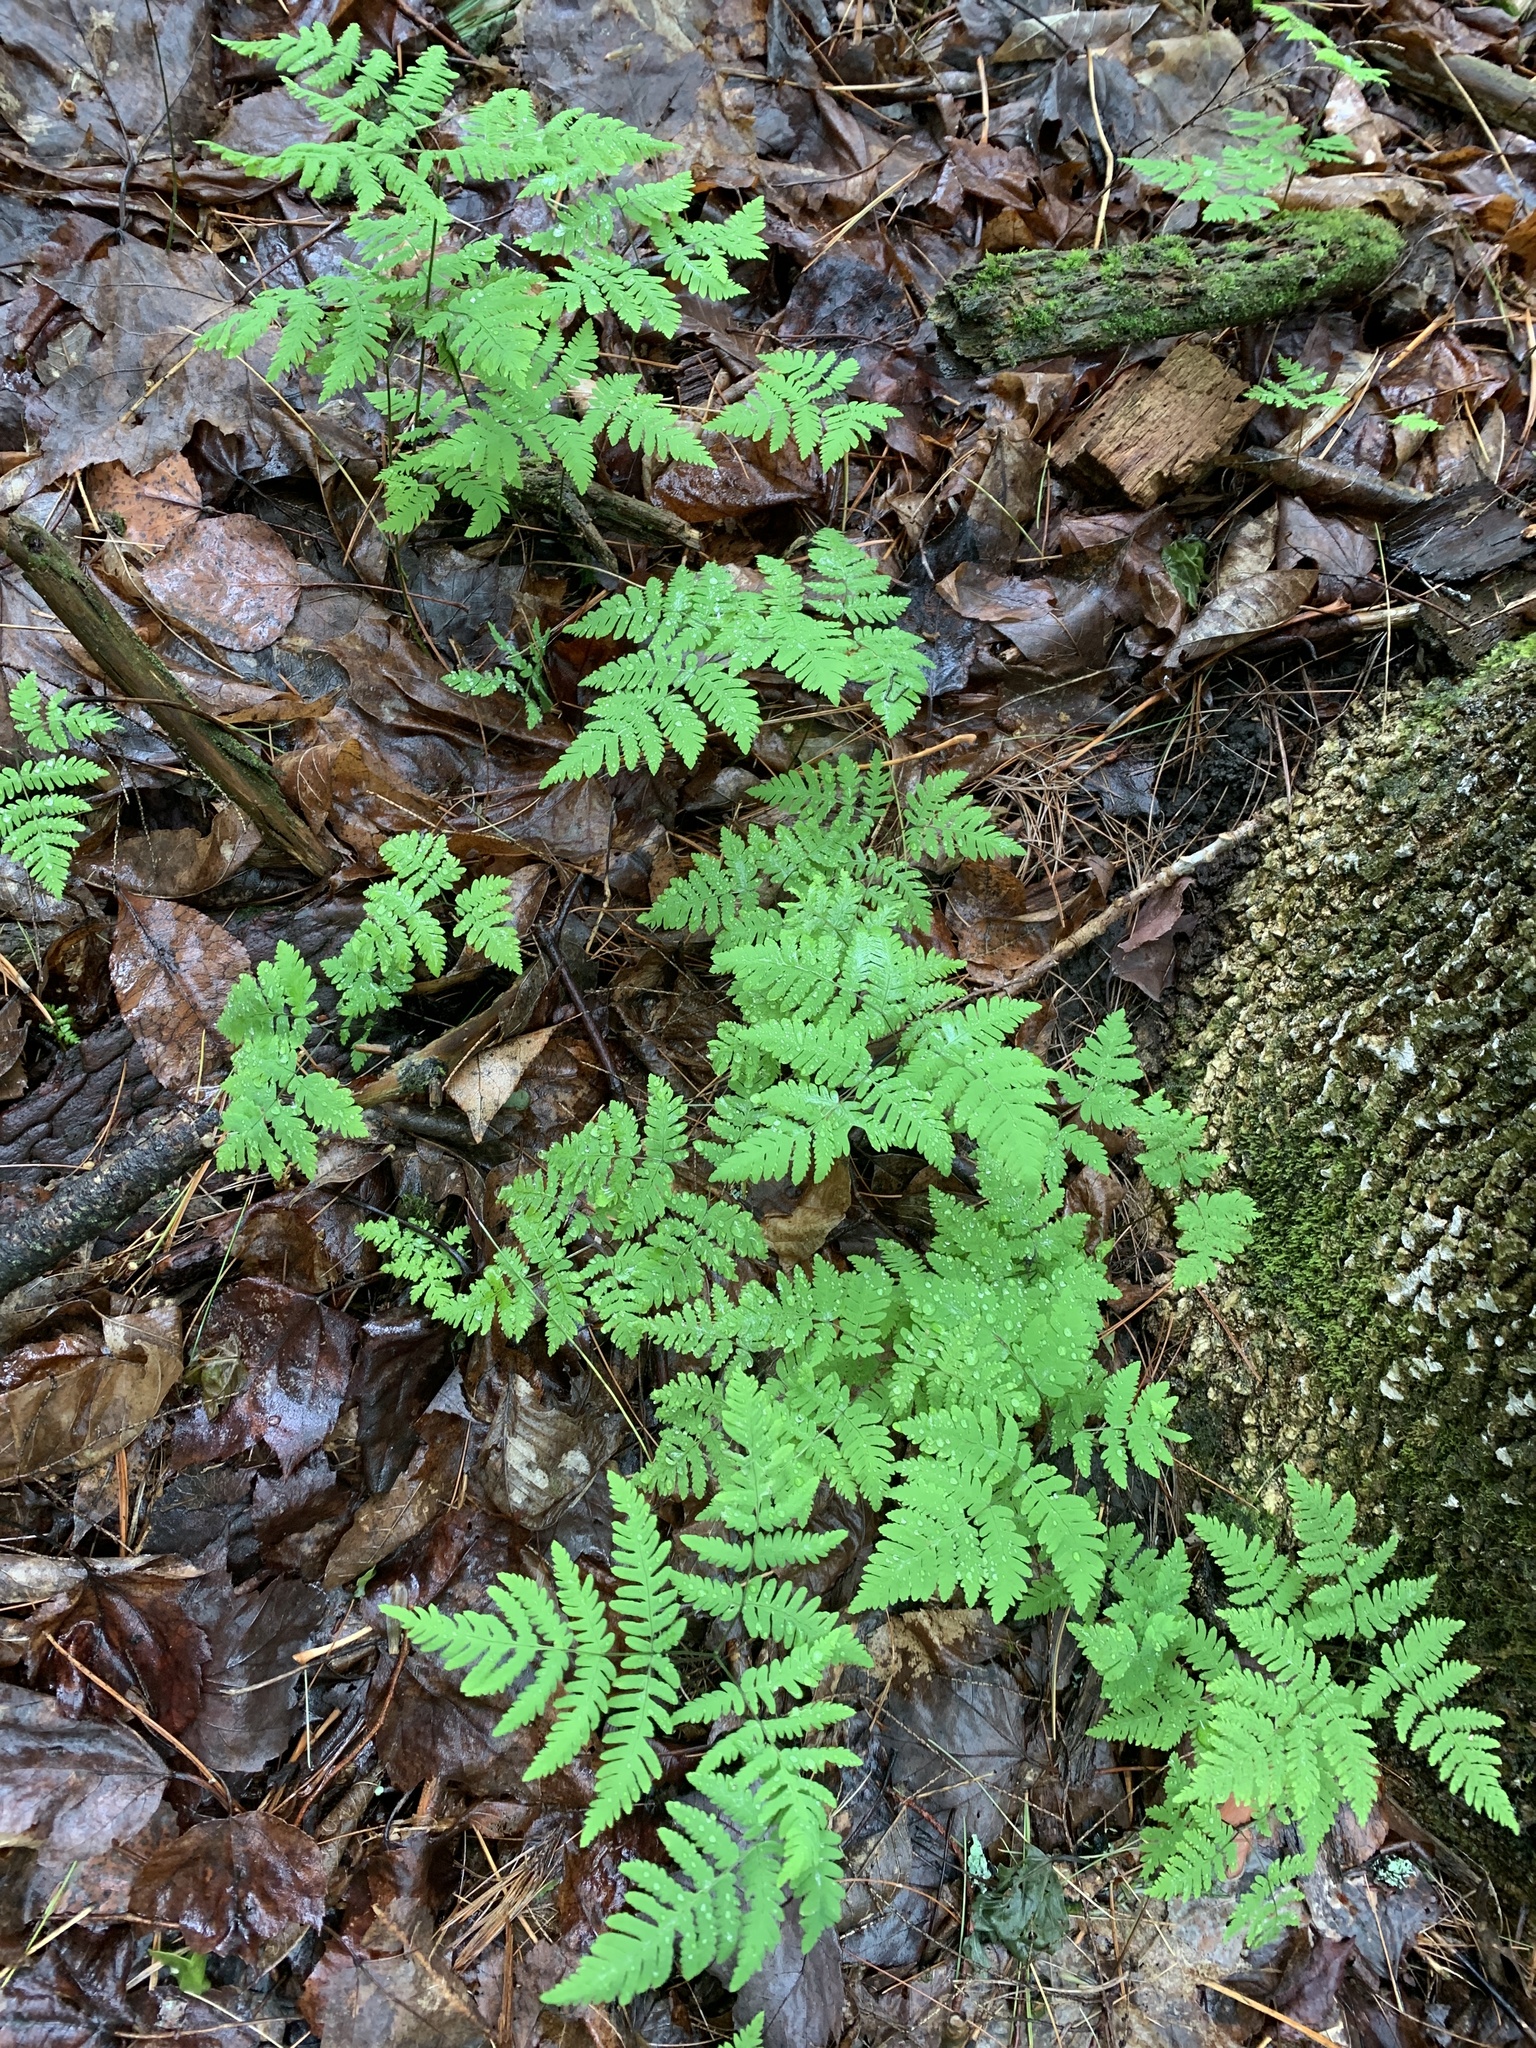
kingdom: Plantae
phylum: Tracheophyta
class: Polypodiopsida
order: Polypodiales
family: Cystopteridaceae
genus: Gymnocarpium
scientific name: Gymnocarpium dryopteris
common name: Oak fern
